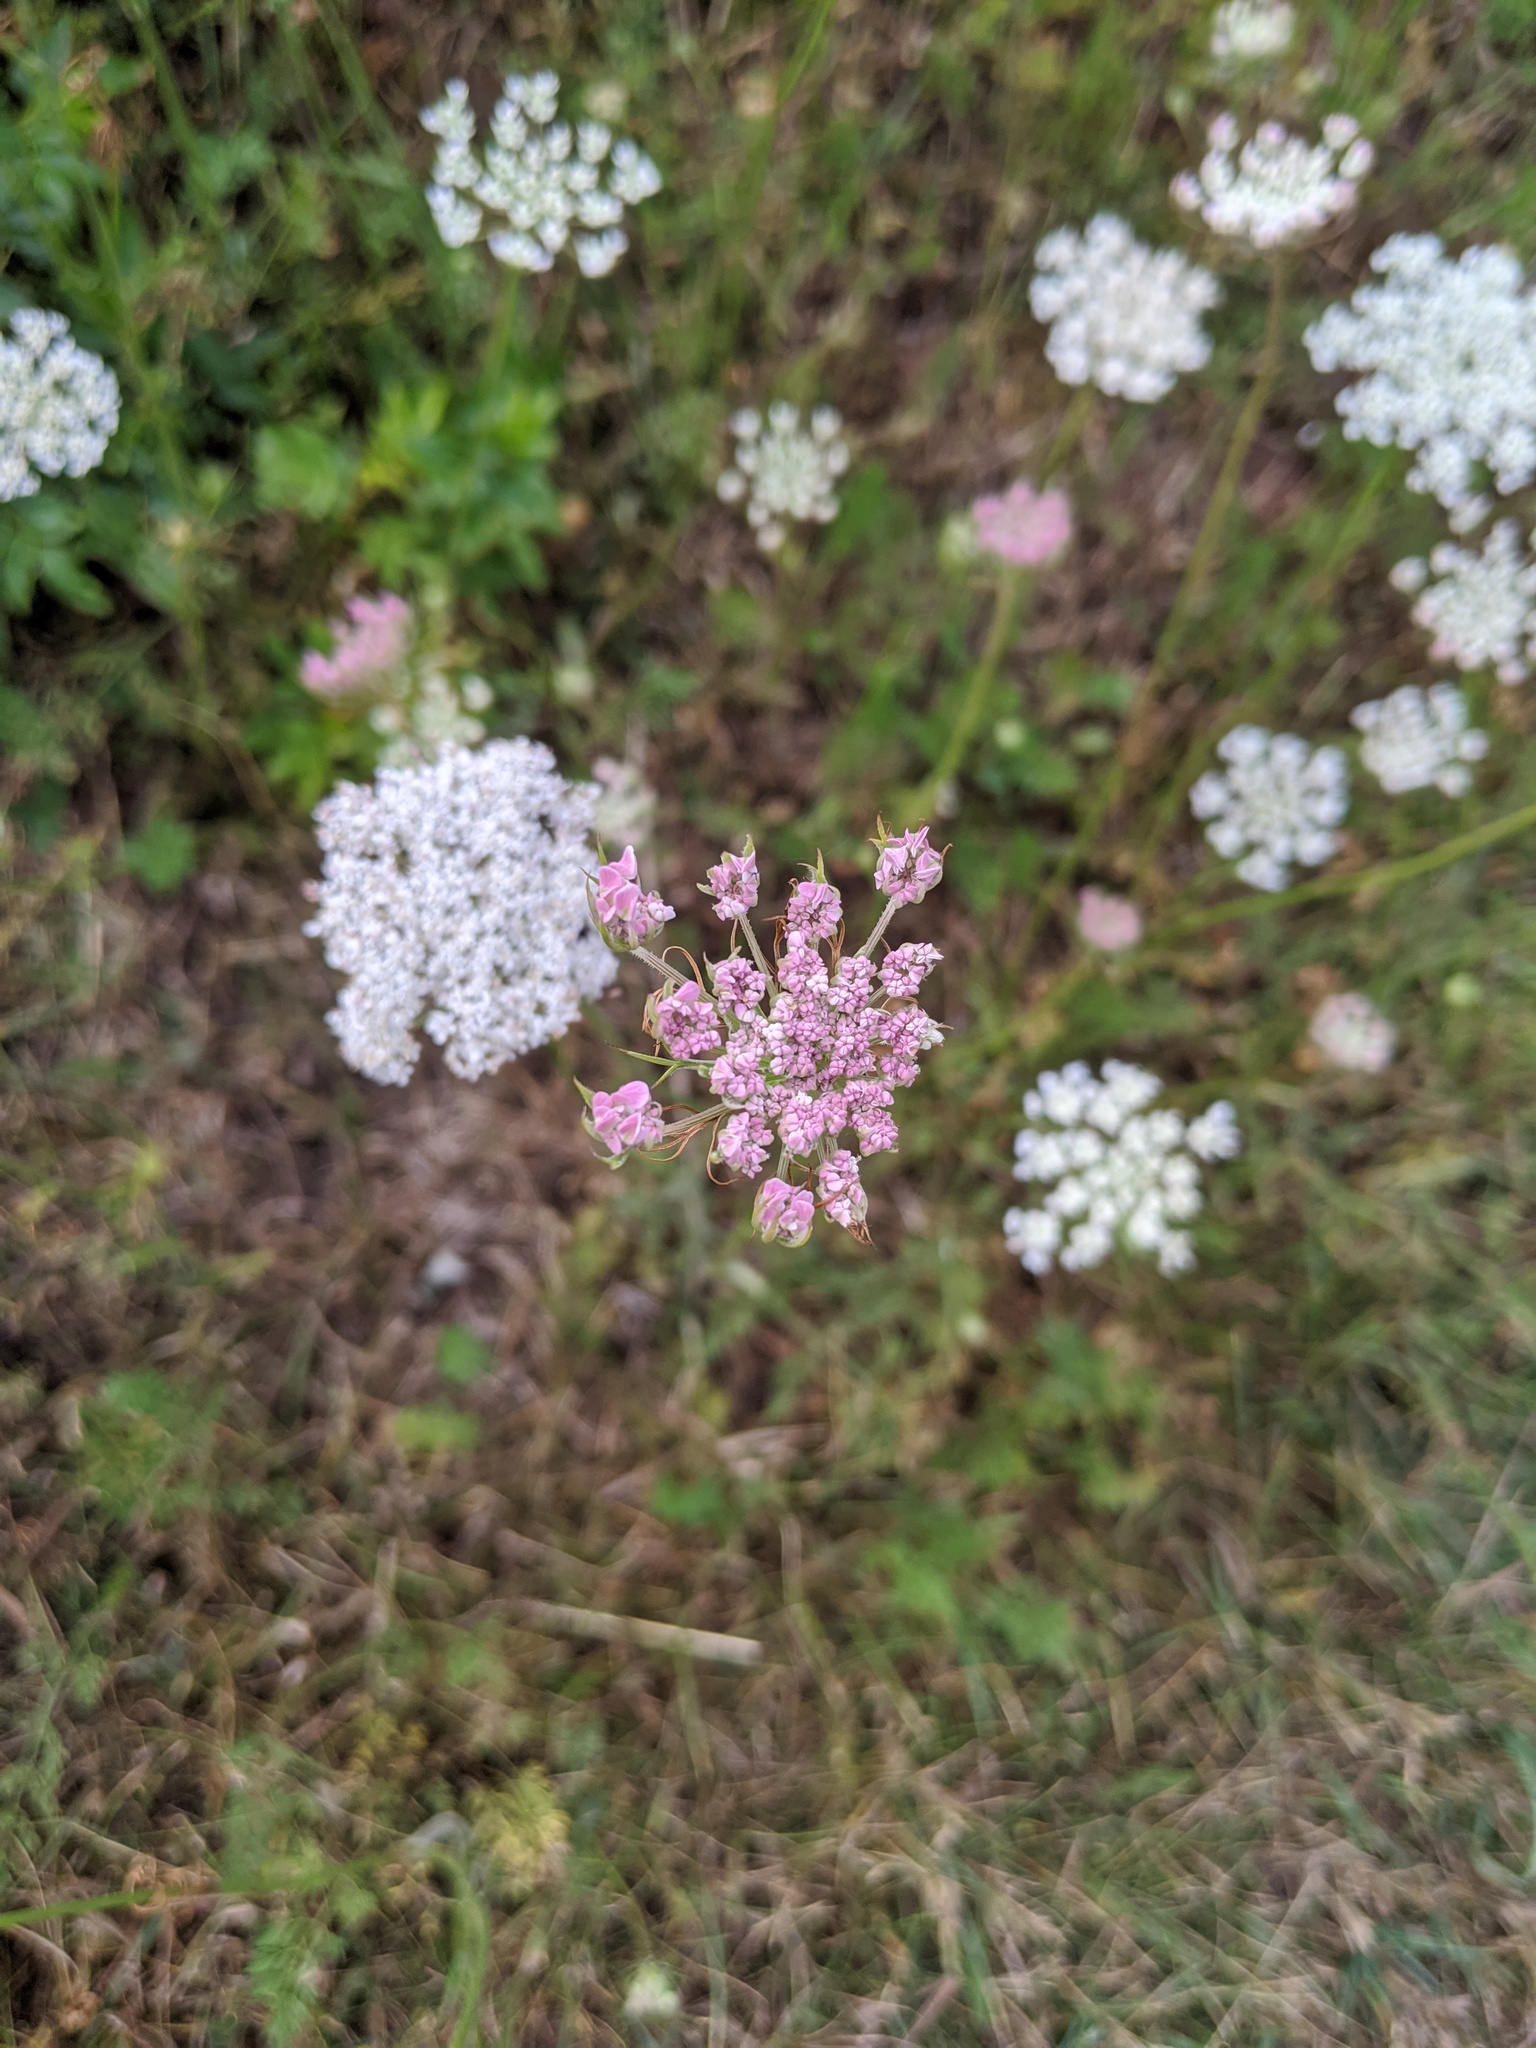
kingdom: Plantae
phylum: Tracheophyta
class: Magnoliopsida
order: Apiales
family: Apiaceae
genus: Daucus
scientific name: Daucus carota
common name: Wild carrot
